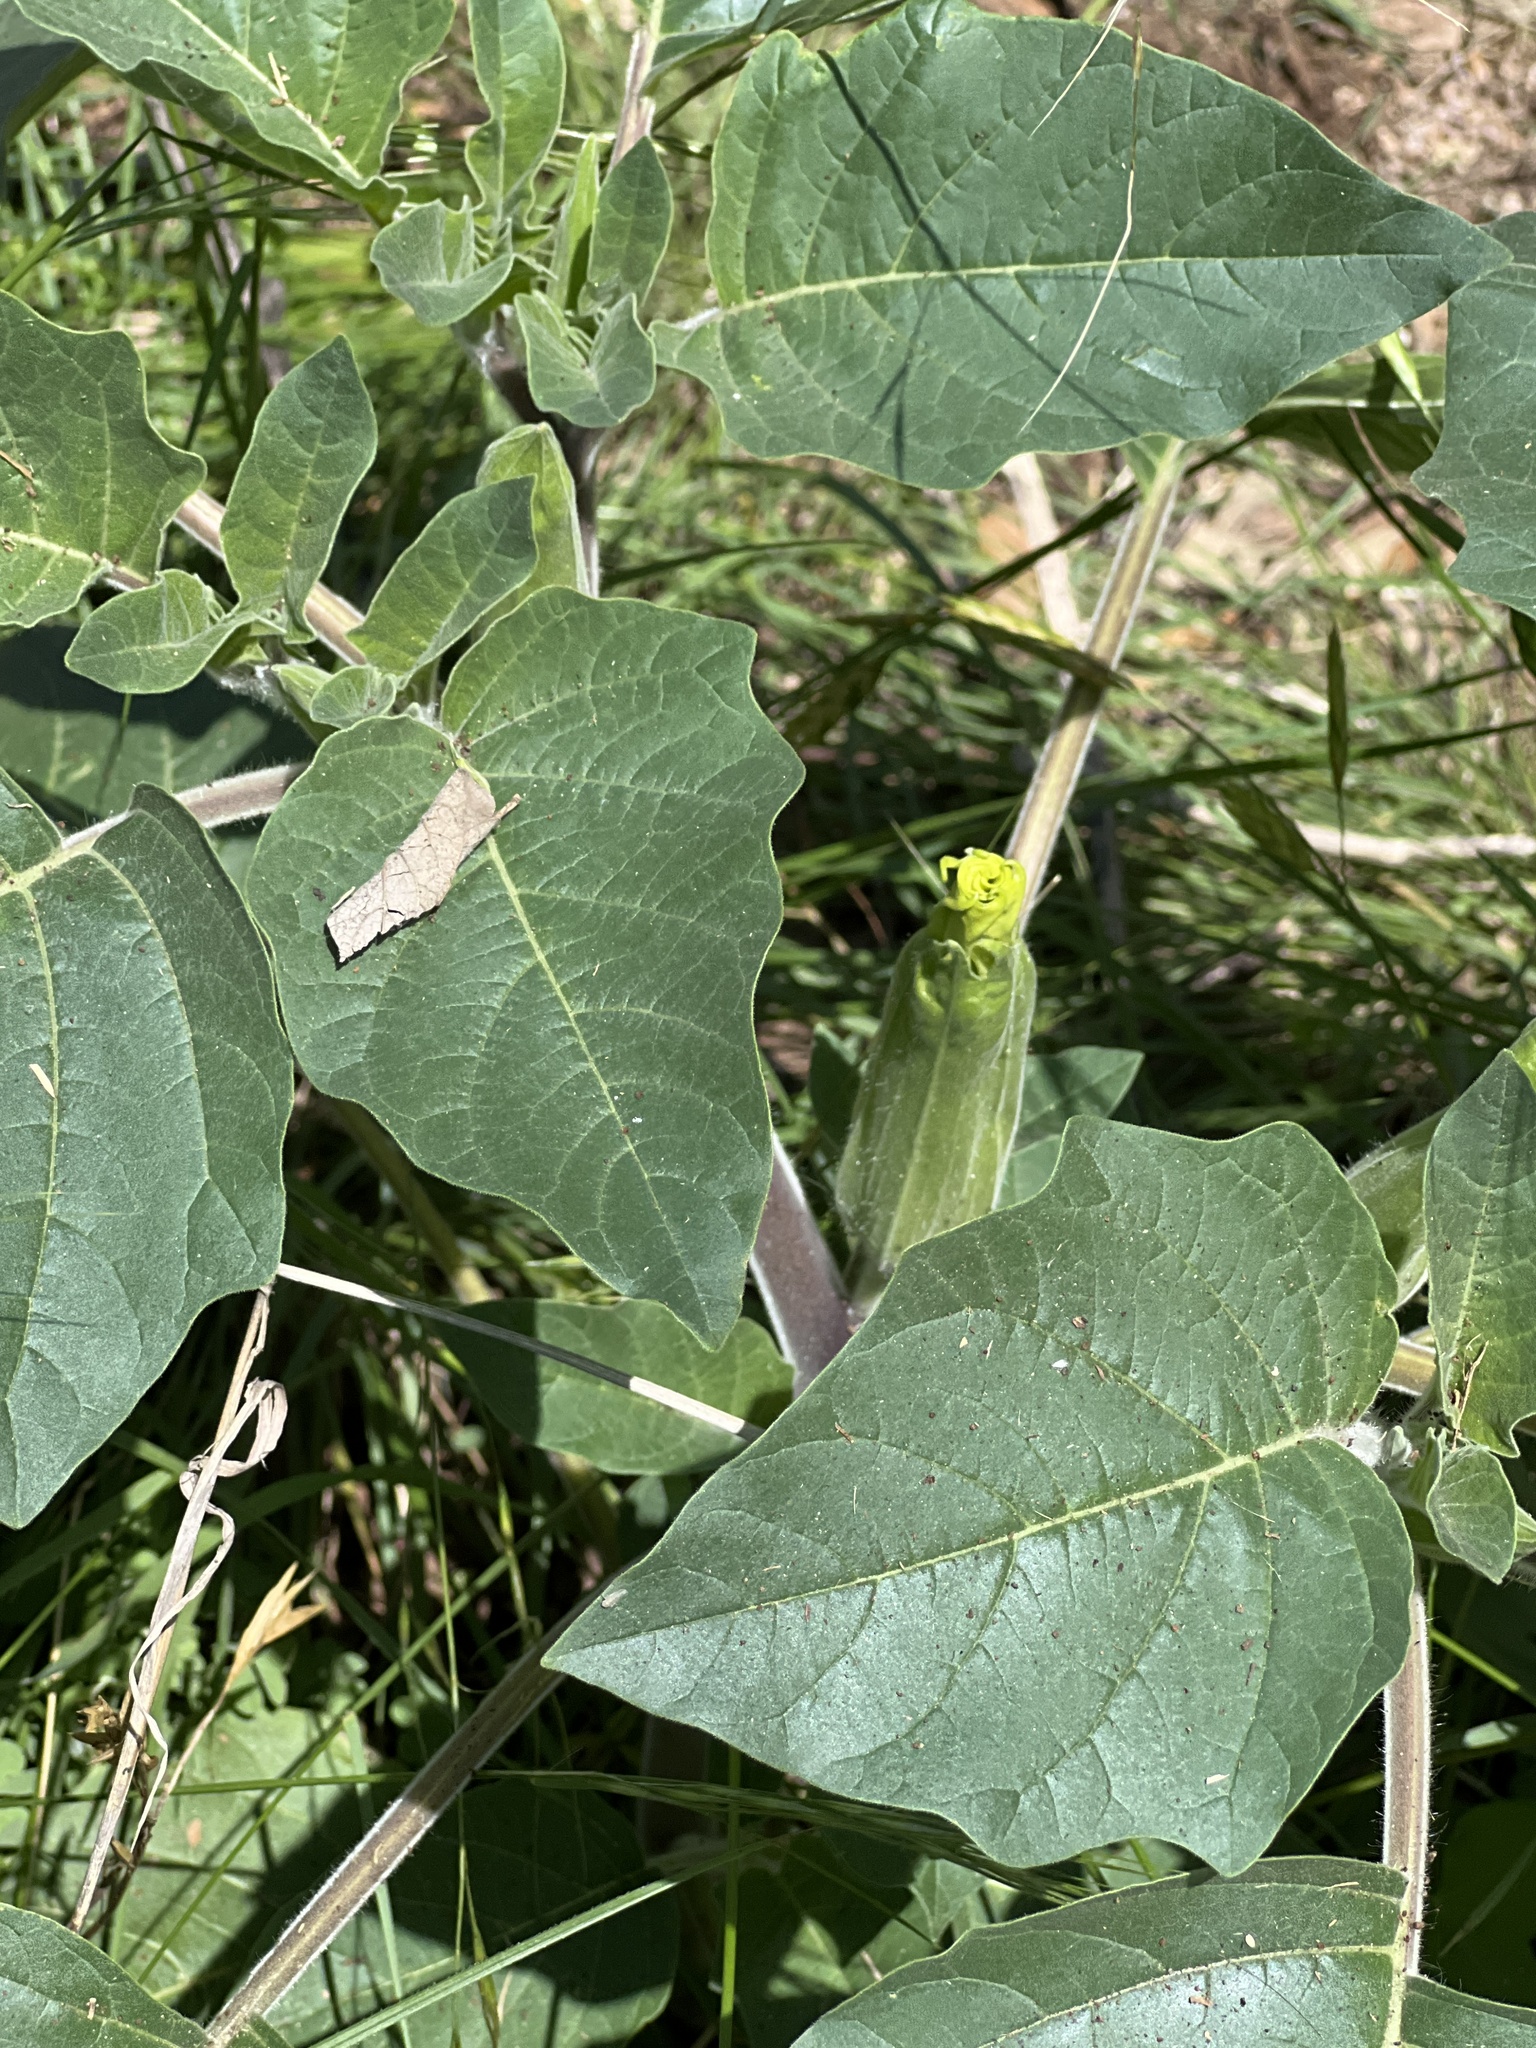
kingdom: Plantae
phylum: Tracheophyta
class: Magnoliopsida
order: Solanales
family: Solanaceae
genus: Datura
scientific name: Datura wrightii
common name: Sacred thorn-apple
